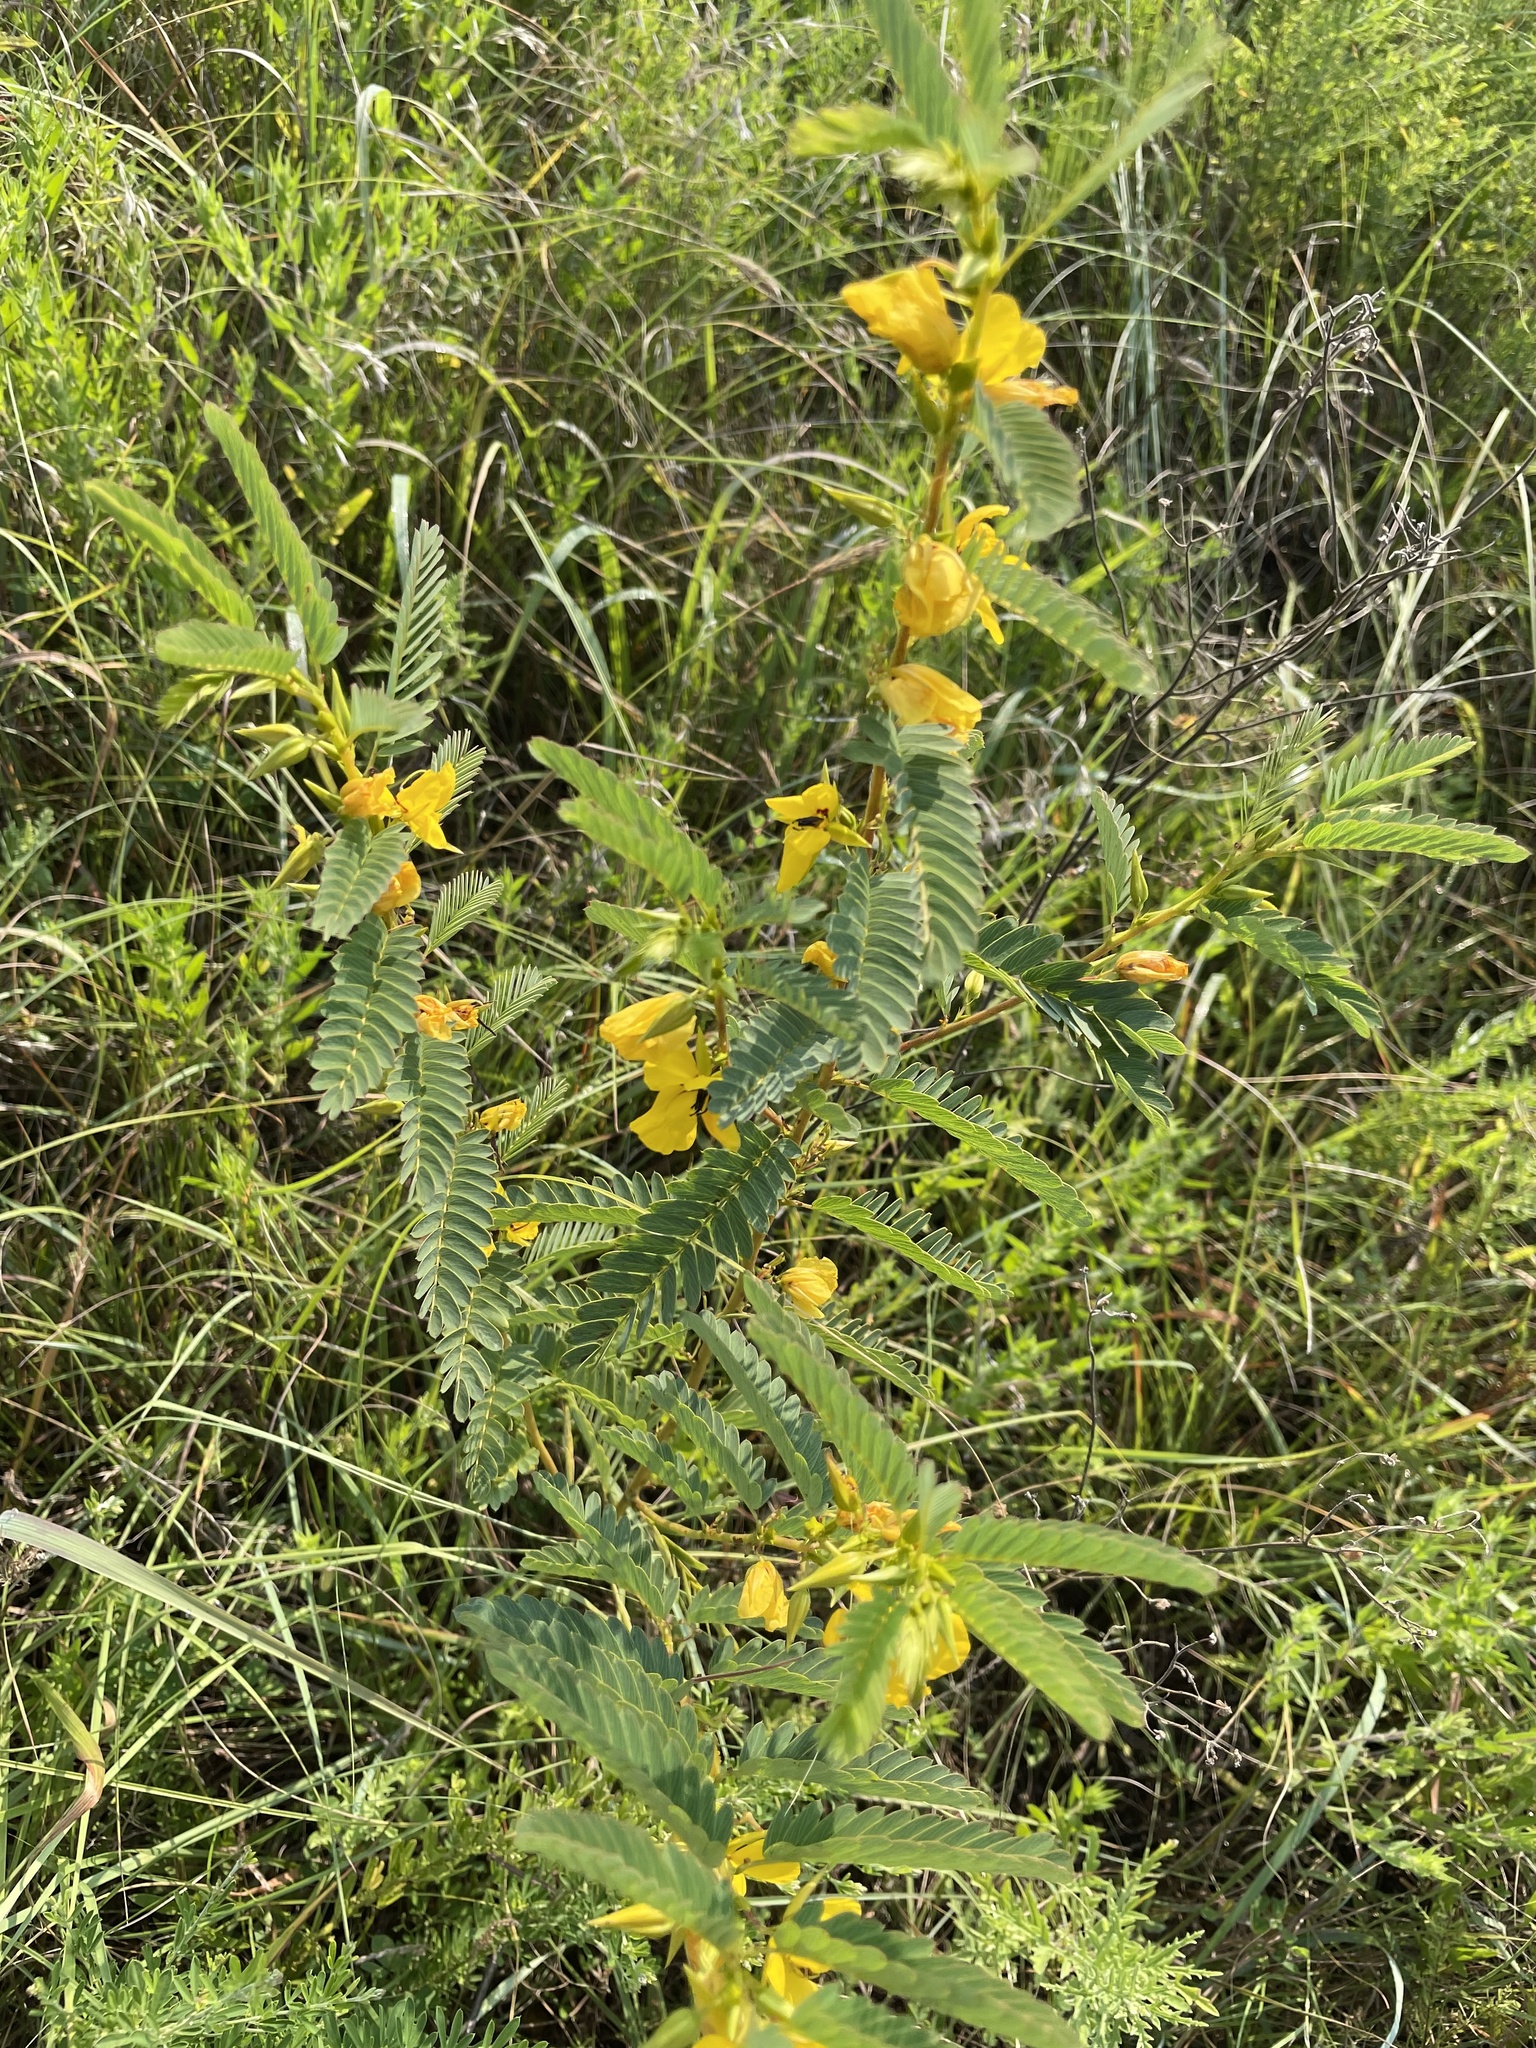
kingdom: Plantae
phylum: Tracheophyta
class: Magnoliopsida
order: Fabales
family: Fabaceae
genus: Chamaecrista
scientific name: Chamaecrista fasciculata
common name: Golden cassia
